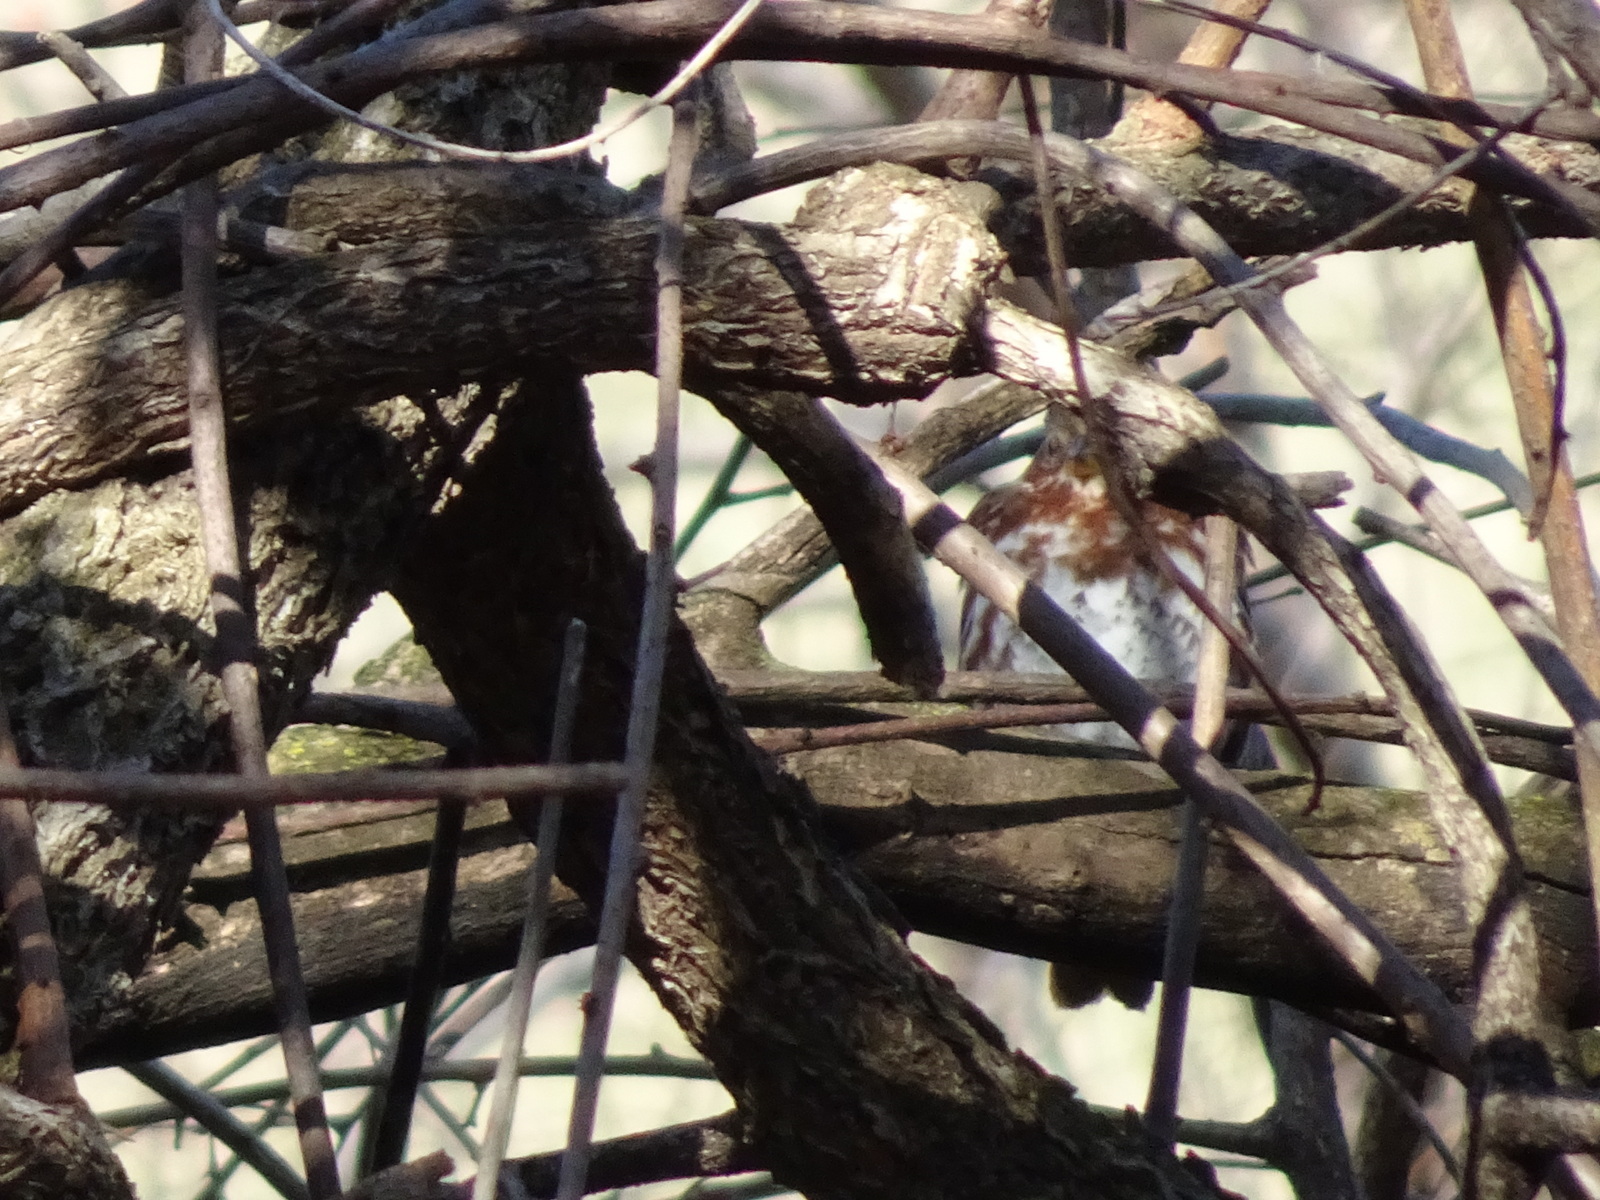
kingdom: Animalia
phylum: Chordata
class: Aves
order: Passeriformes
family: Passerellidae
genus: Passerella
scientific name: Passerella iliaca
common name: Fox sparrow
